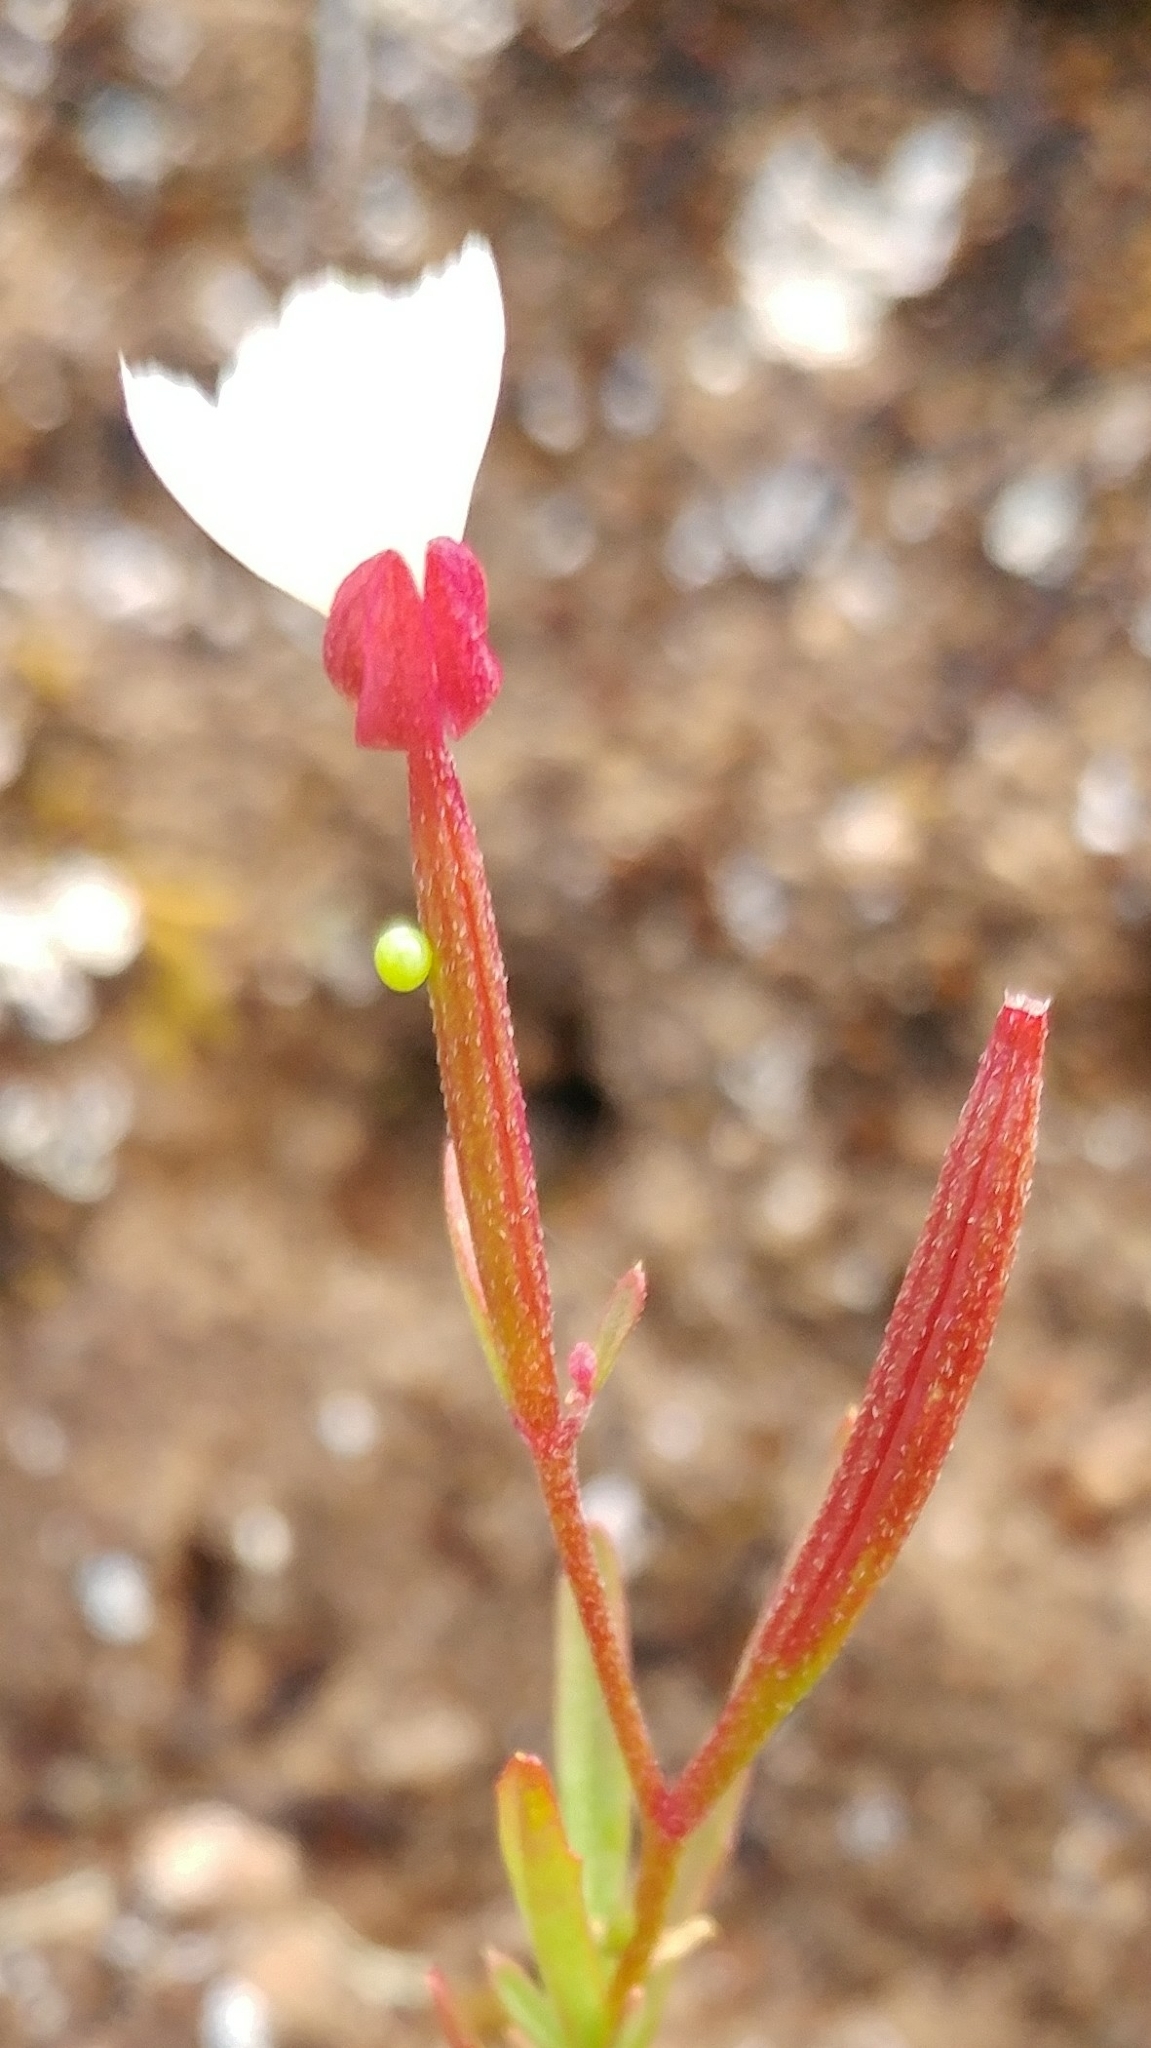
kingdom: Plantae
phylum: Tracheophyta
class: Magnoliopsida
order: Myrtales
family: Onagraceae
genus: Clarkia
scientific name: Clarkia epilobioides
